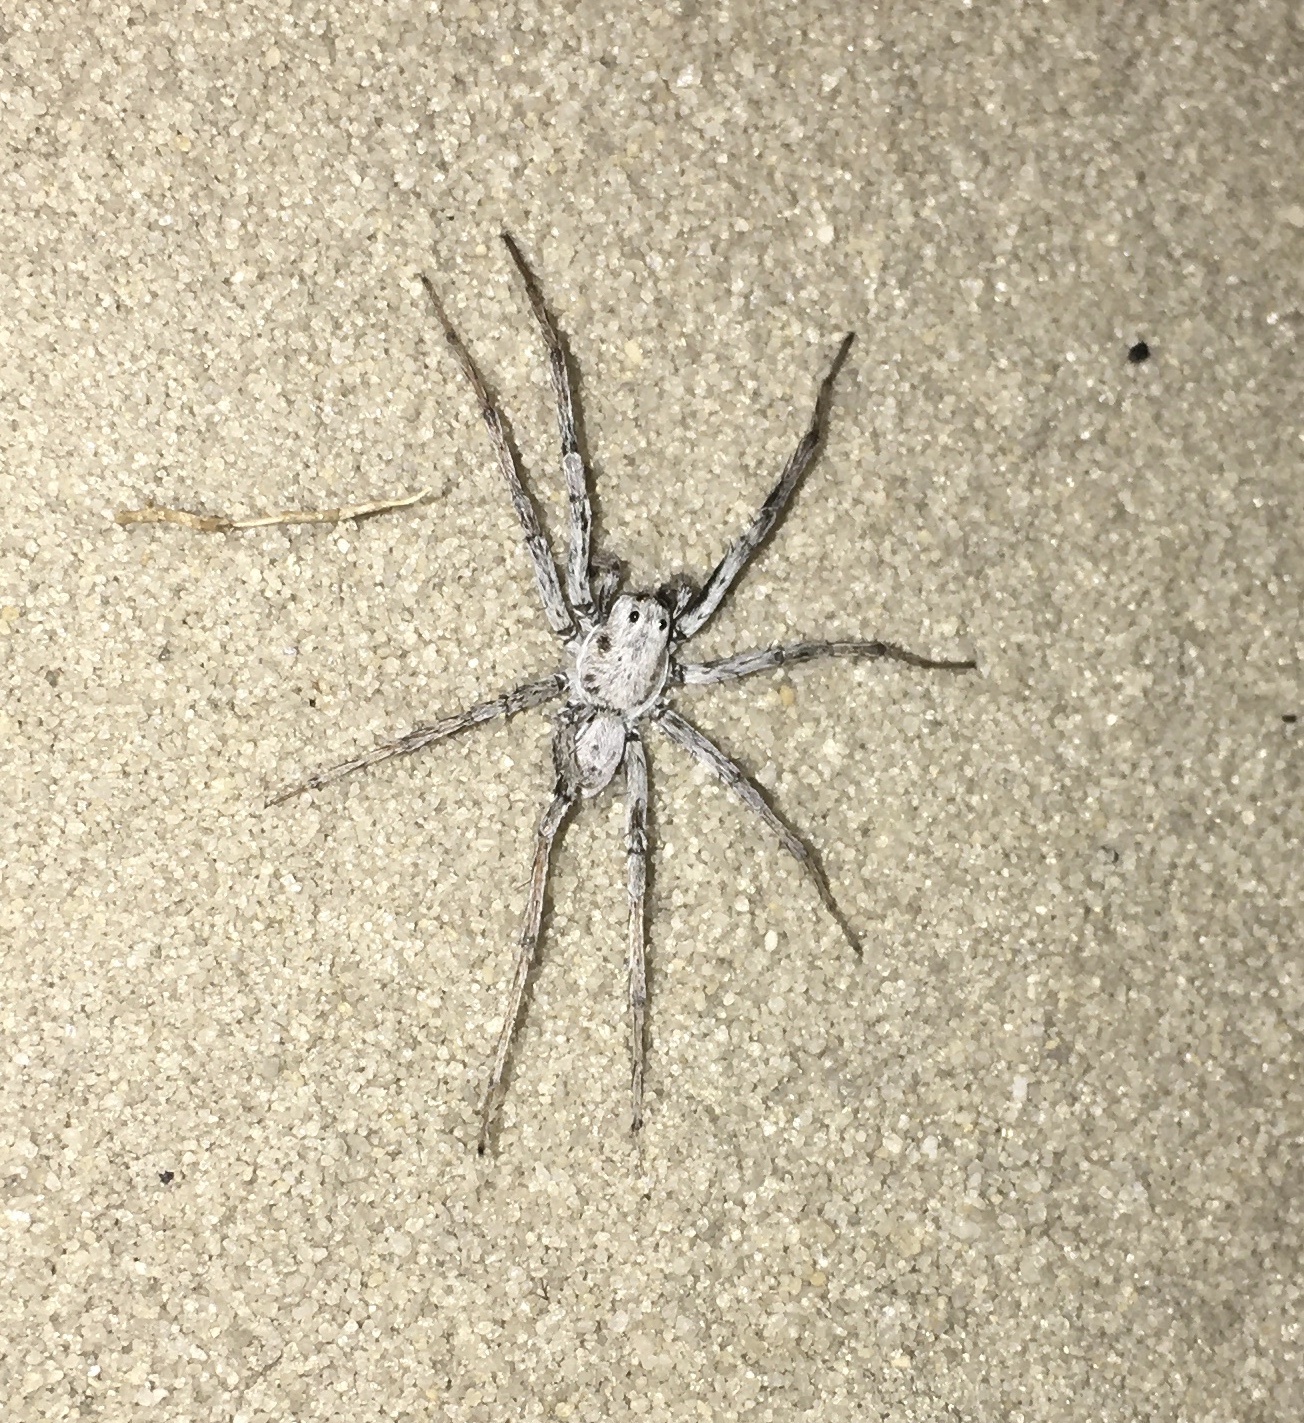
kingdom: Animalia
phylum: Arthropoda
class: Arachnida
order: Araneae
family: Lycosidae
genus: Geolycosa
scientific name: Geolycosa xera
